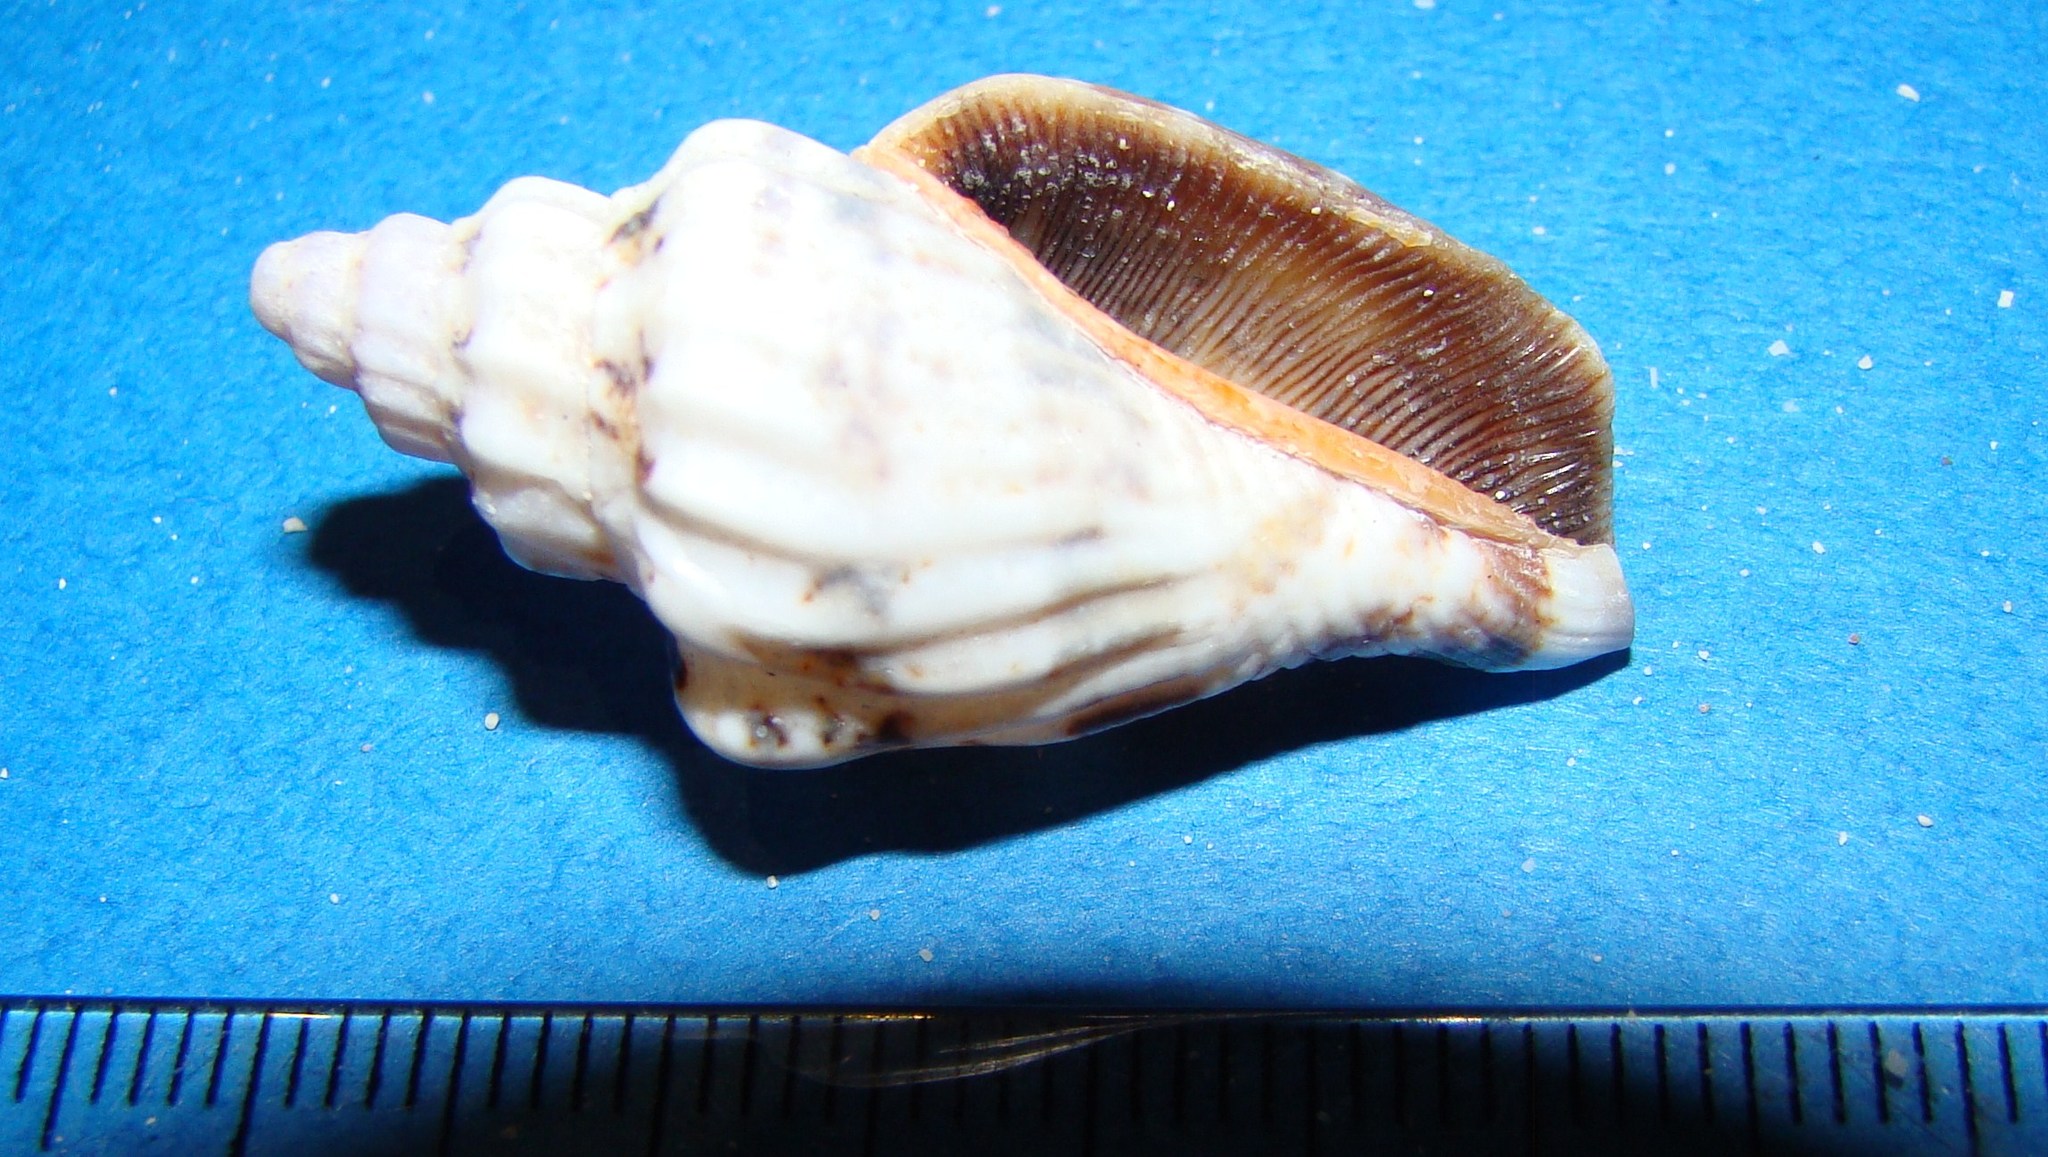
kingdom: Animalia
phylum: Mollusca
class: Gastropoda
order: Littorinimorpha
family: Strombidae
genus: Canarium
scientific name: Canarium labiatum
